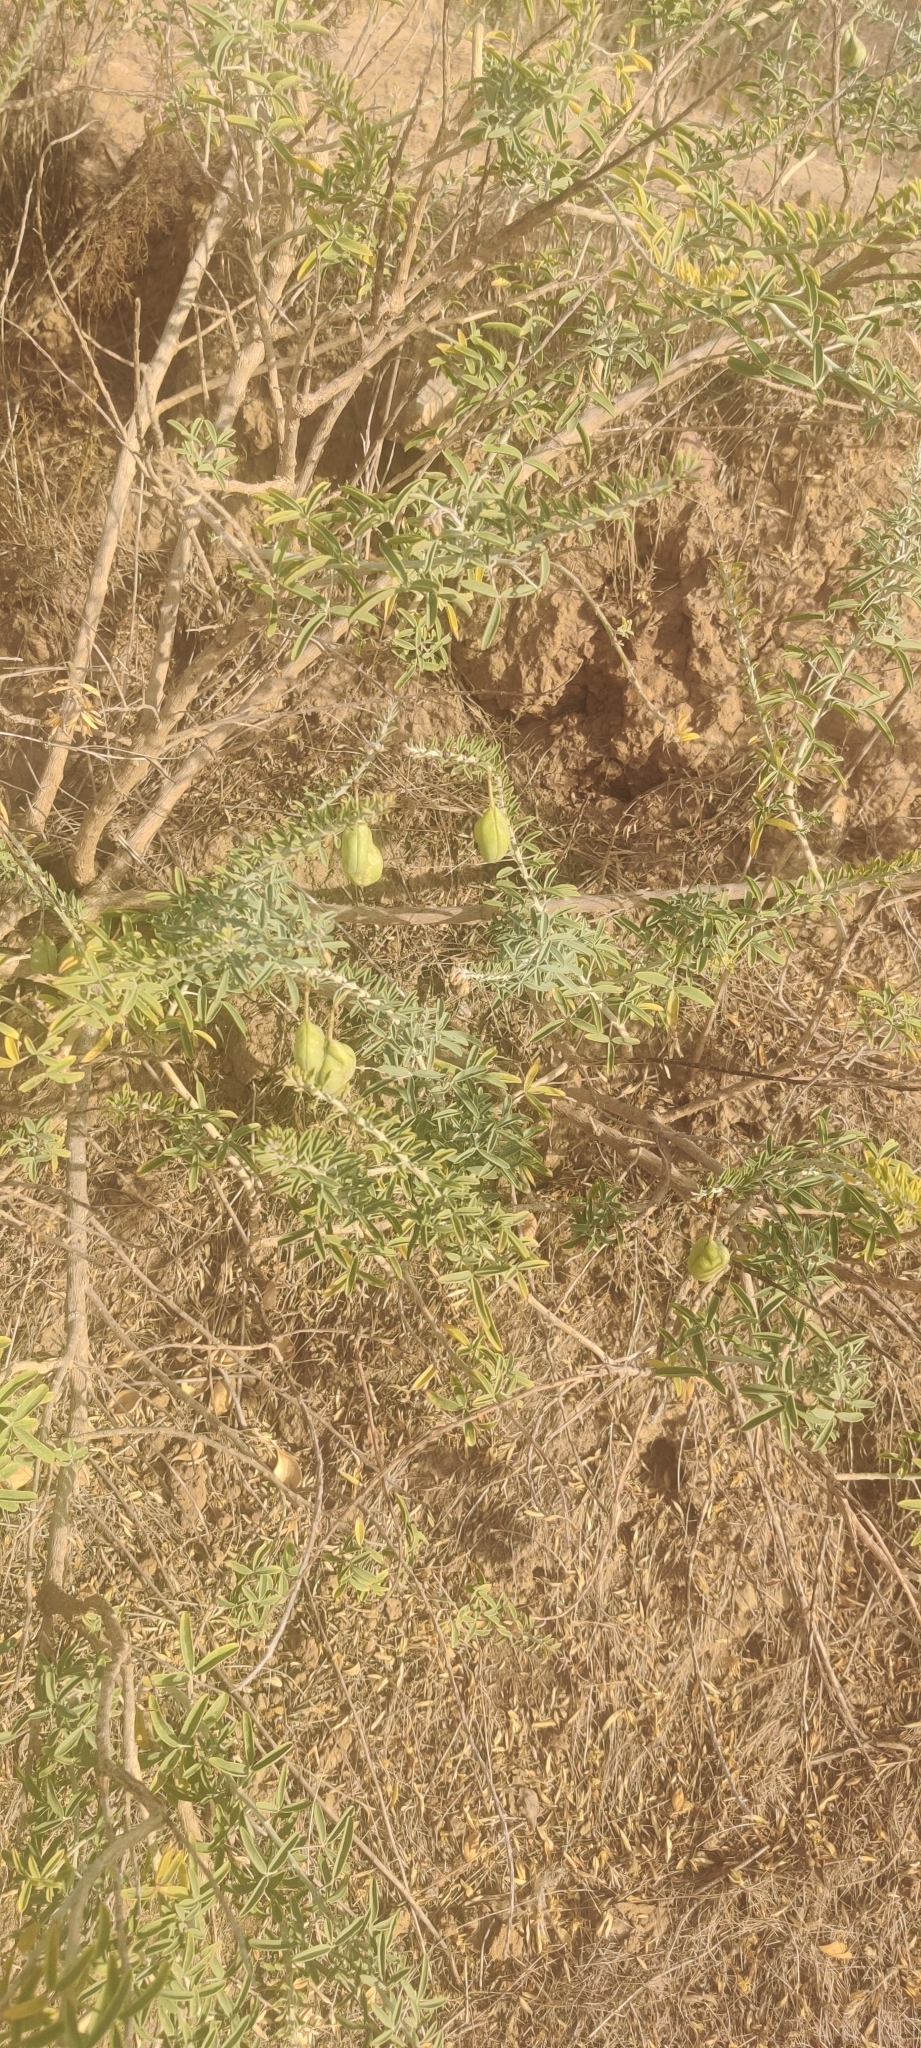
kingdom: Plantae
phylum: Tracheophyta
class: Magnoliopsida
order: Brassicales
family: Cleomaceae
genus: Cleomella
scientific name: Cleomella arborea
